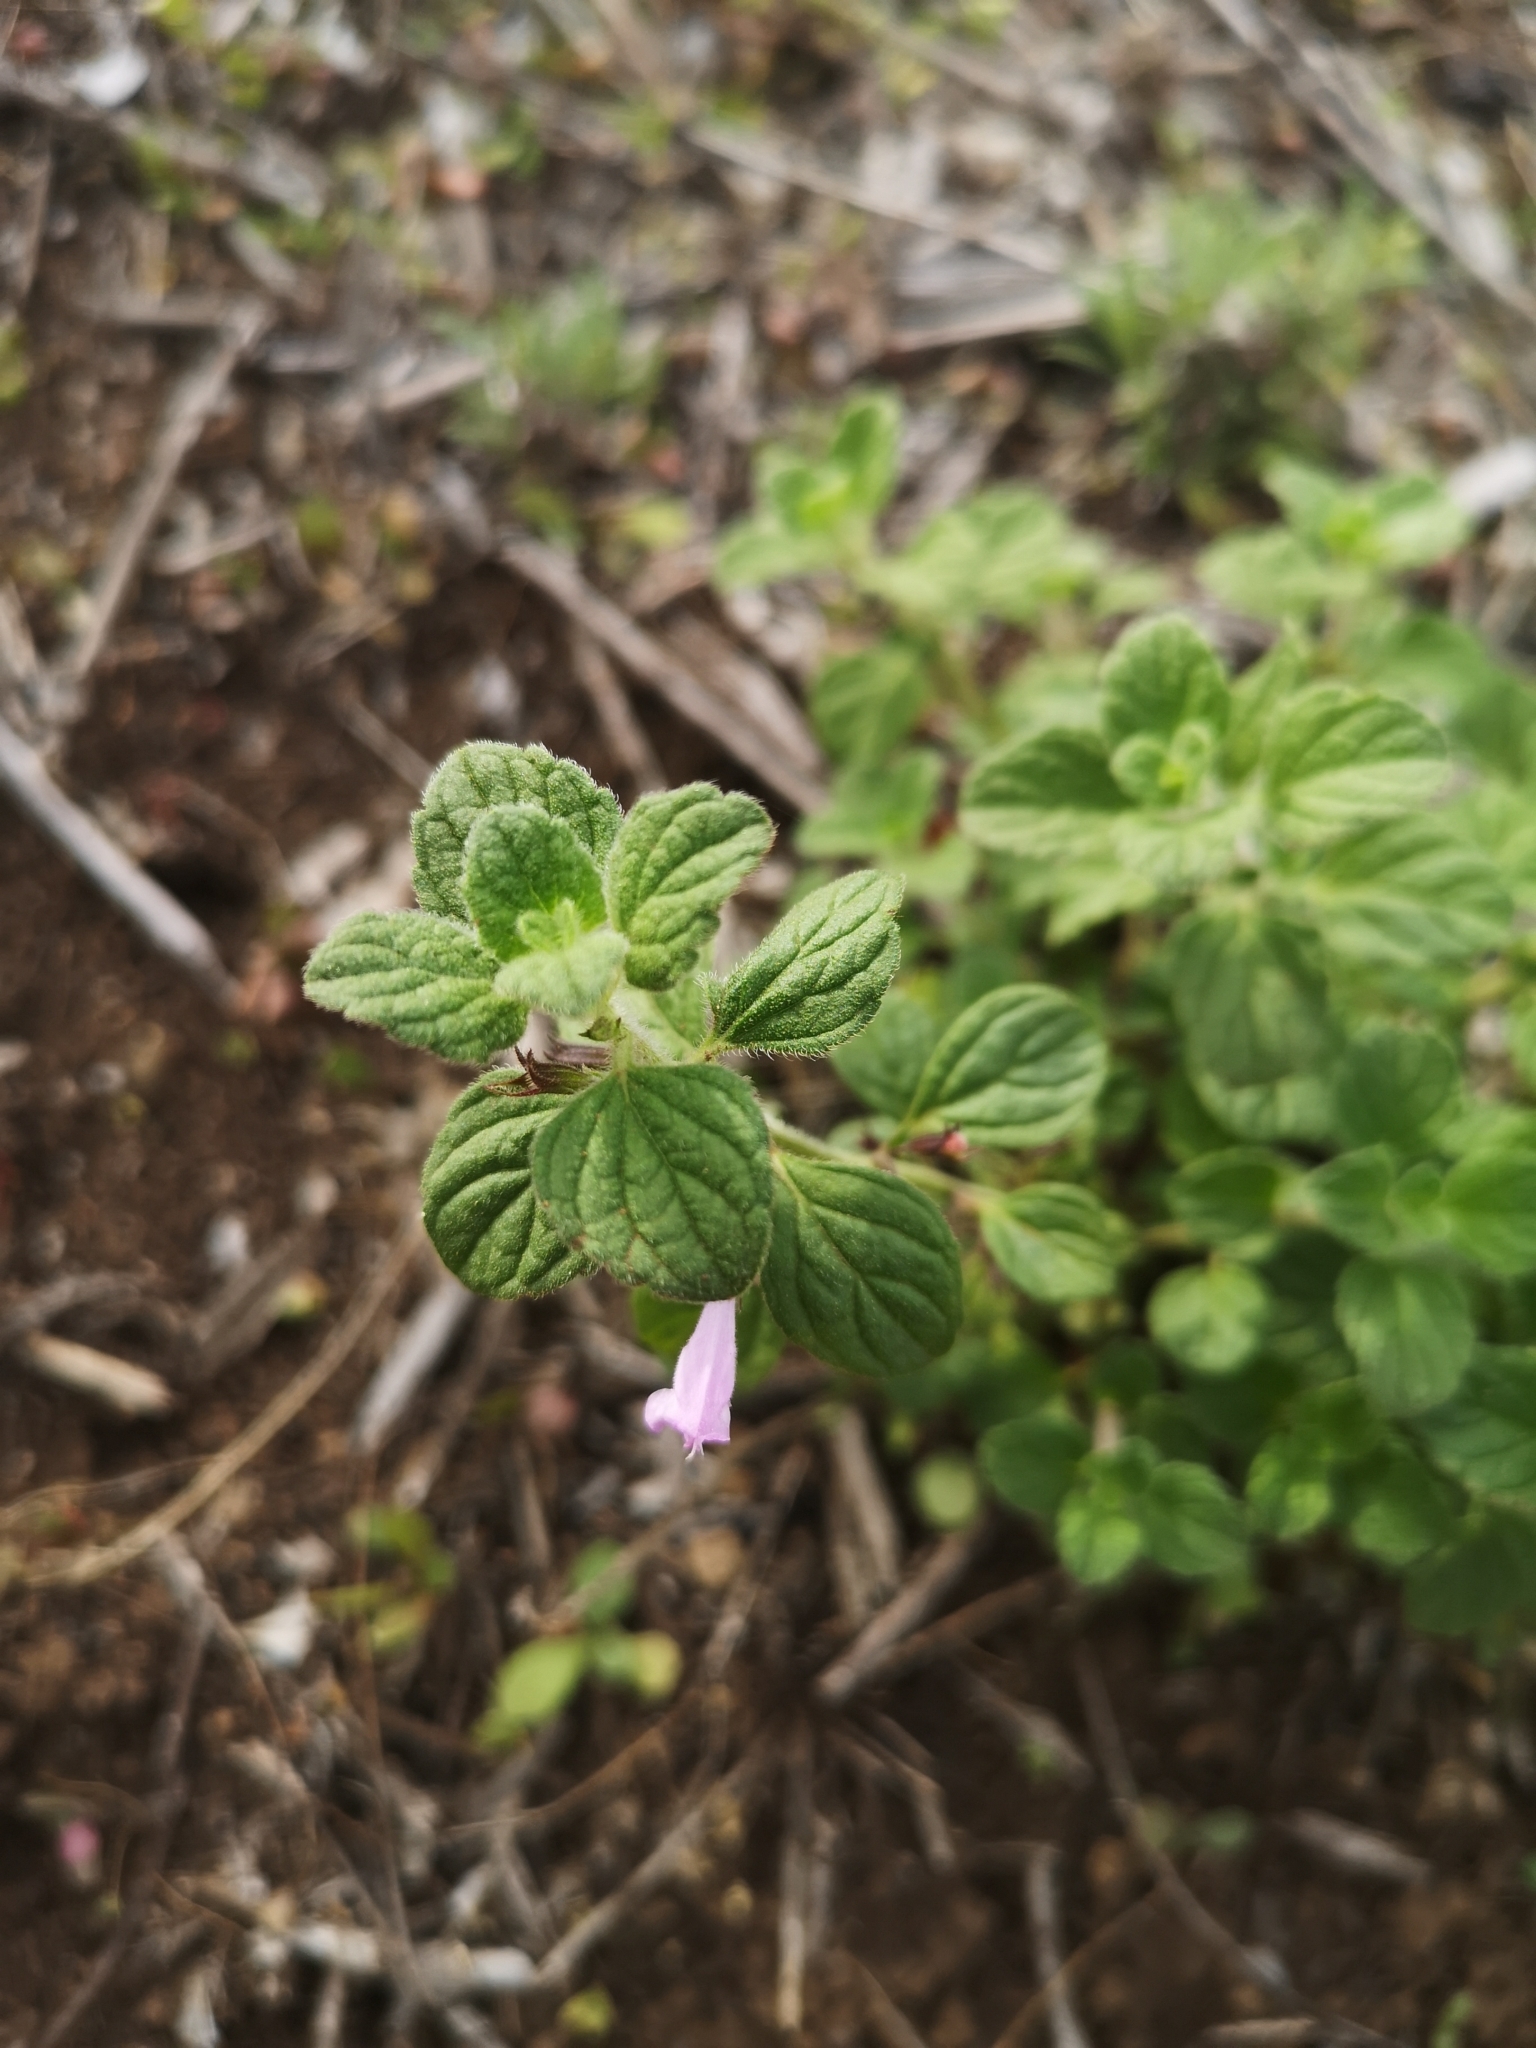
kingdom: Plantae
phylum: Tracheophyta
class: Magnoliopsida
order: Lamiales
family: Lamiaceae
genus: Clinopodium
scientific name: Clinopodium menthifolium
